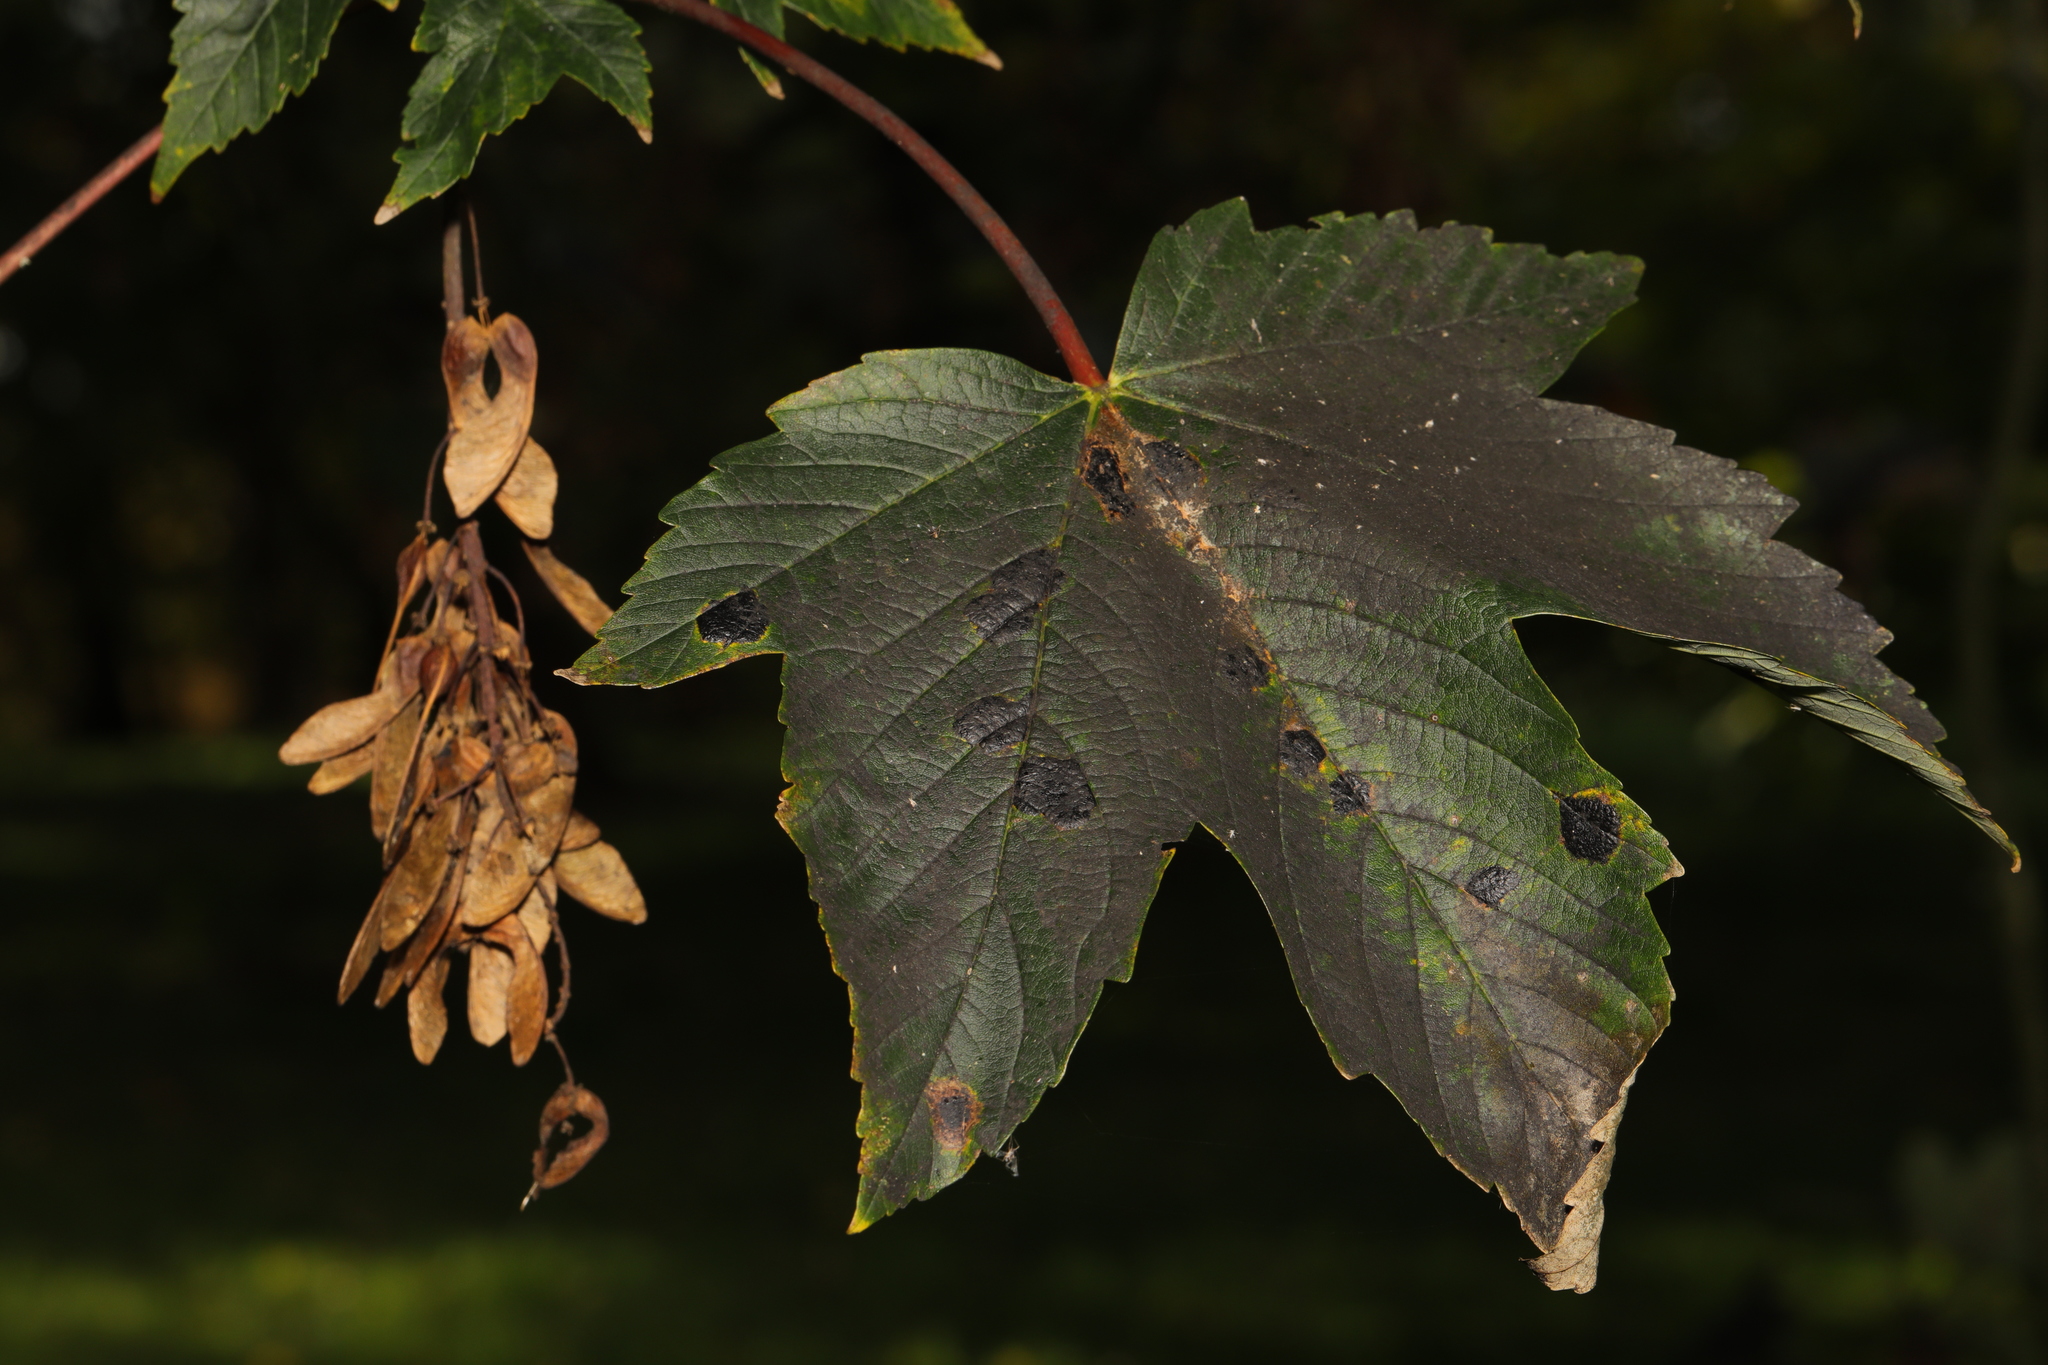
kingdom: Plantae
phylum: Tracheophyta
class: Magnoliopsida
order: Sapindales
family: Sapindaceae
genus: Acer
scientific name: Acer pseudoplatanus
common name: Sycamore
